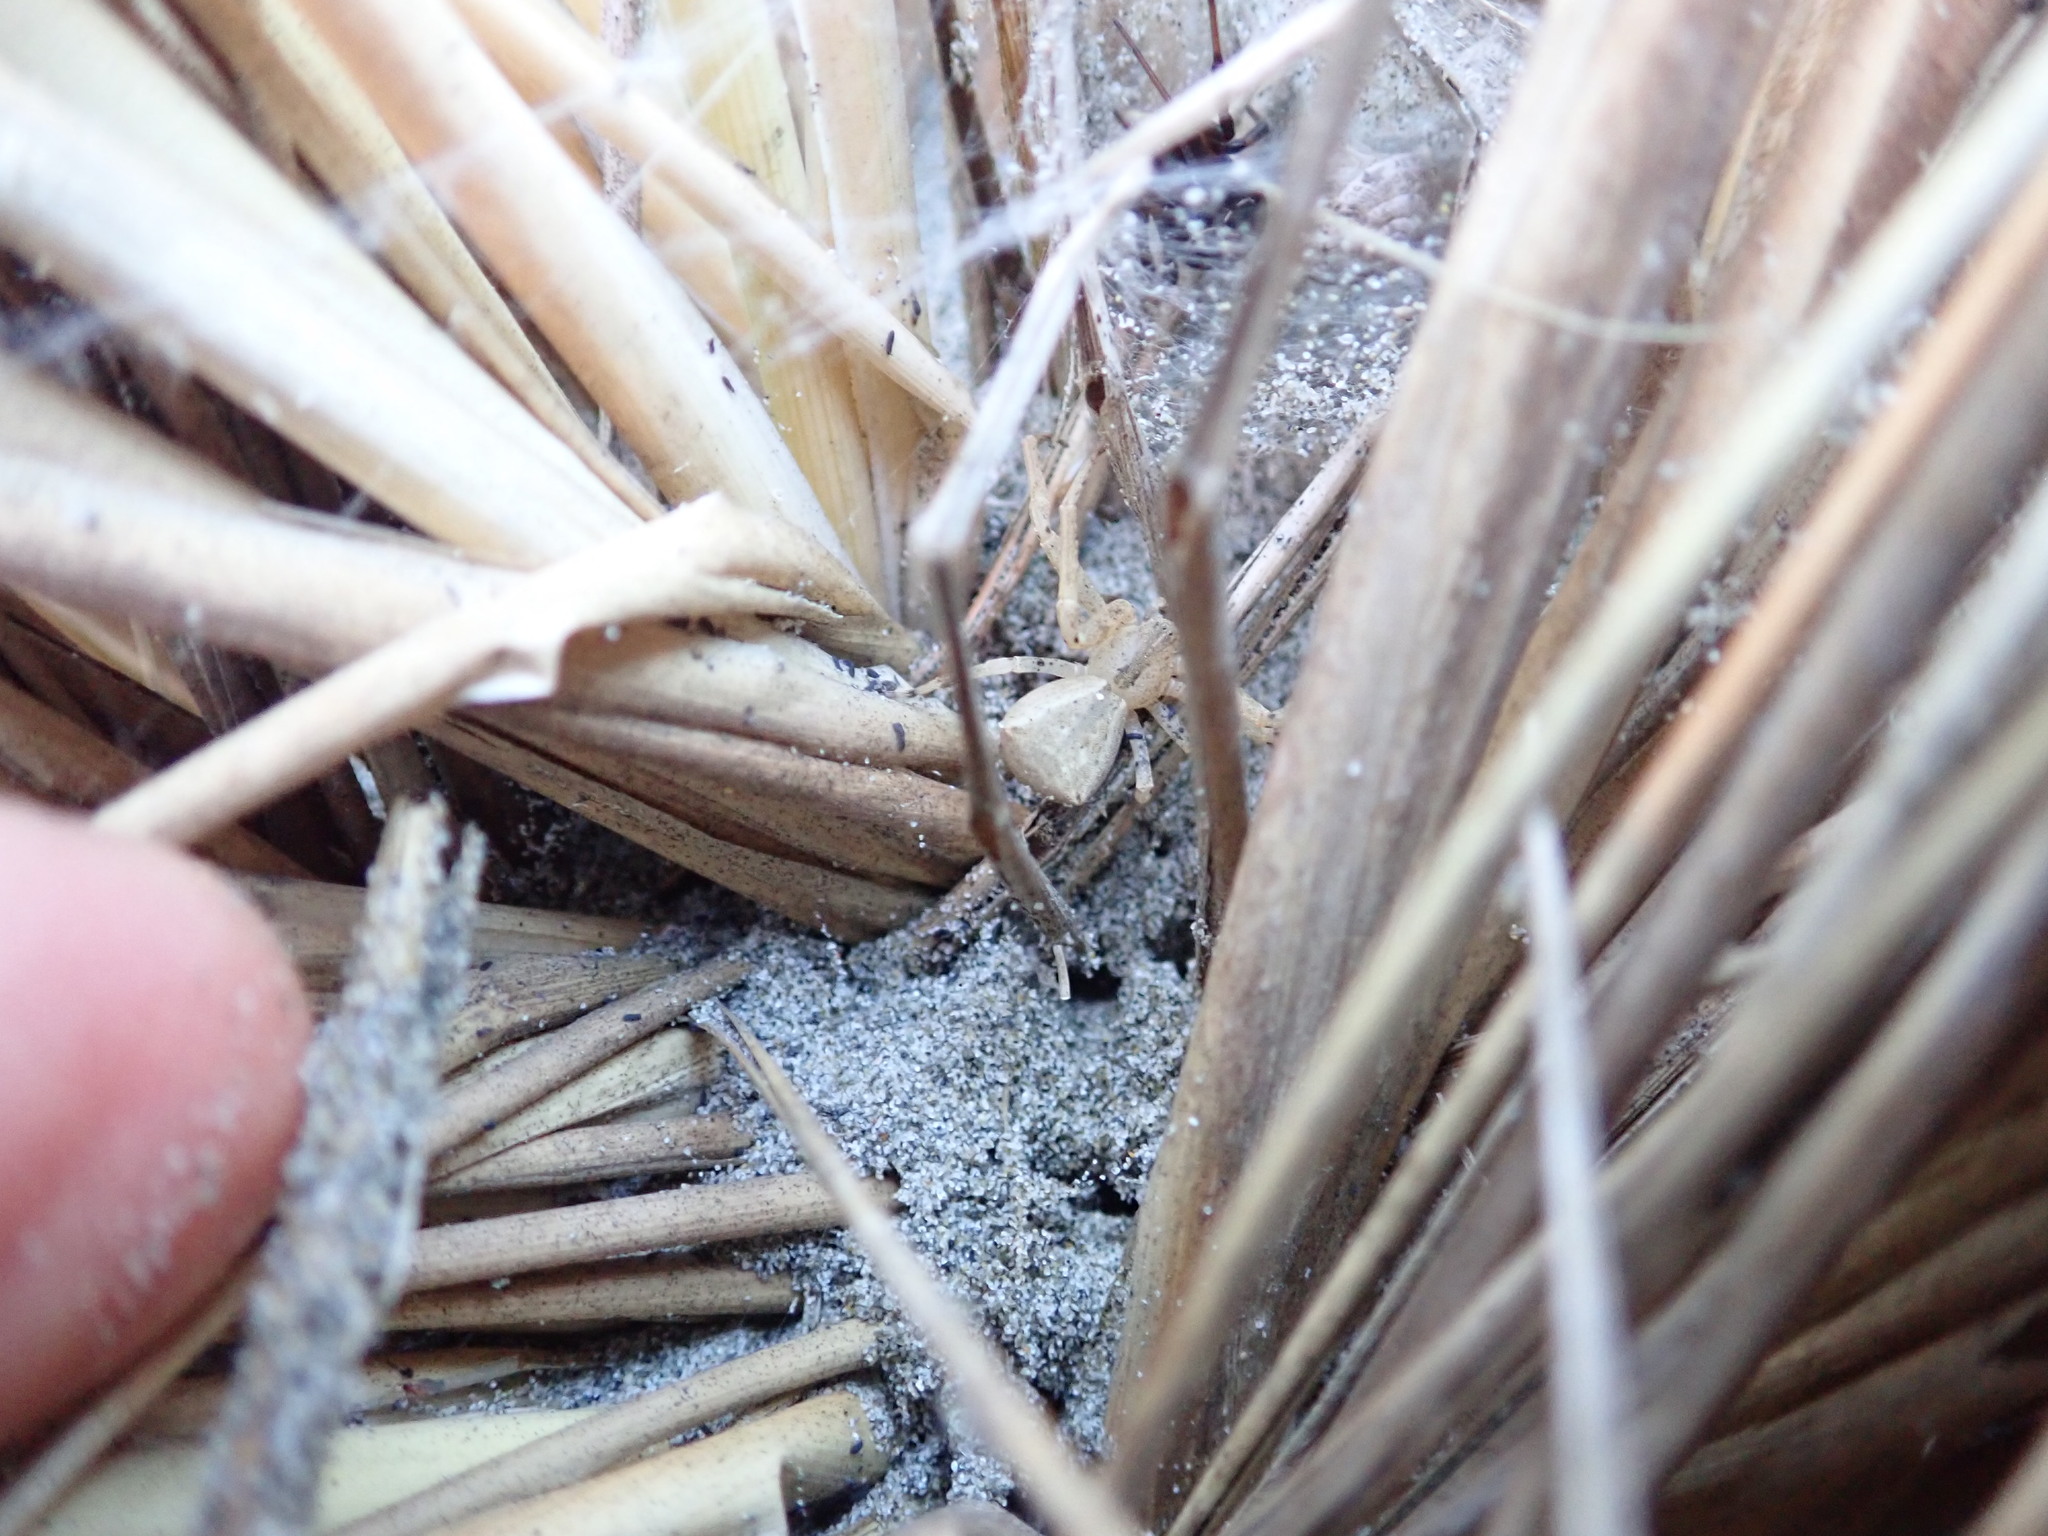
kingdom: Animalia
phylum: Arthropoda
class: Arachnida
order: Araneae
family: Theridiidae
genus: Latrodectus
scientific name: Latrodectus katipo
